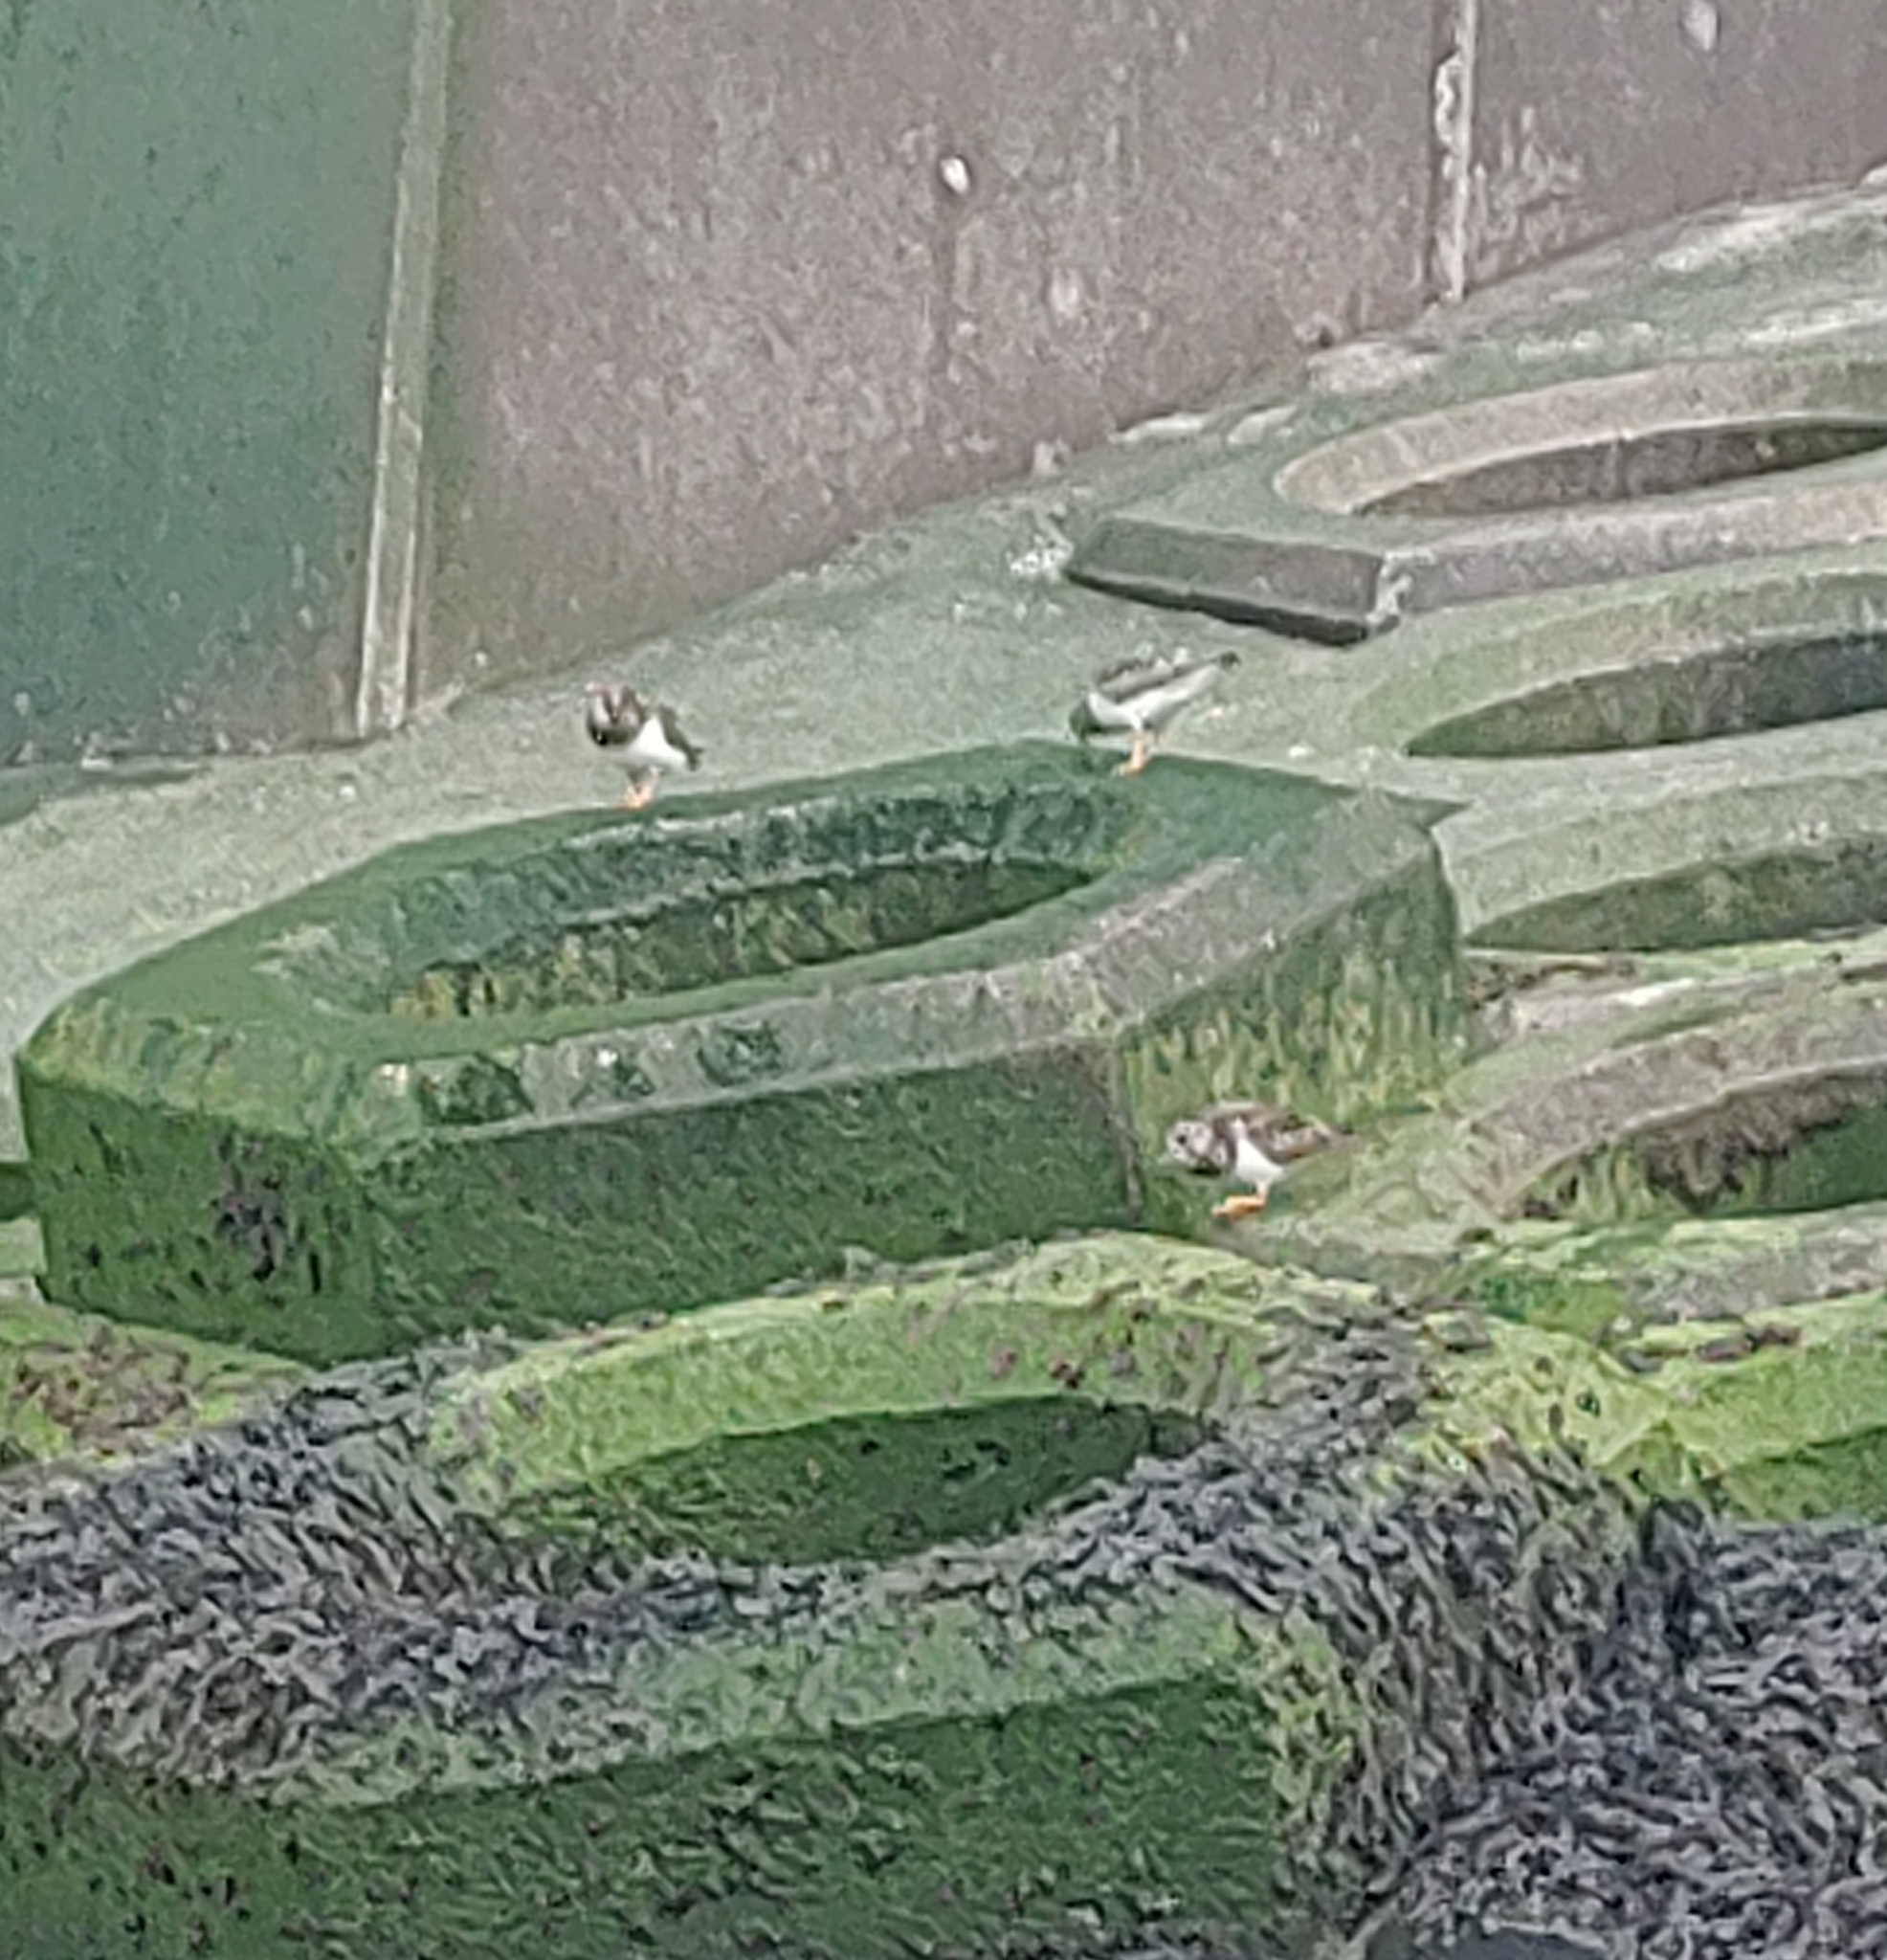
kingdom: Animalia
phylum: Chordata
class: Aves
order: Charadriiformes
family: Scolopacidae
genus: Arenaria
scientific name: Arenaria interpres
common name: Ruddy turnstone
